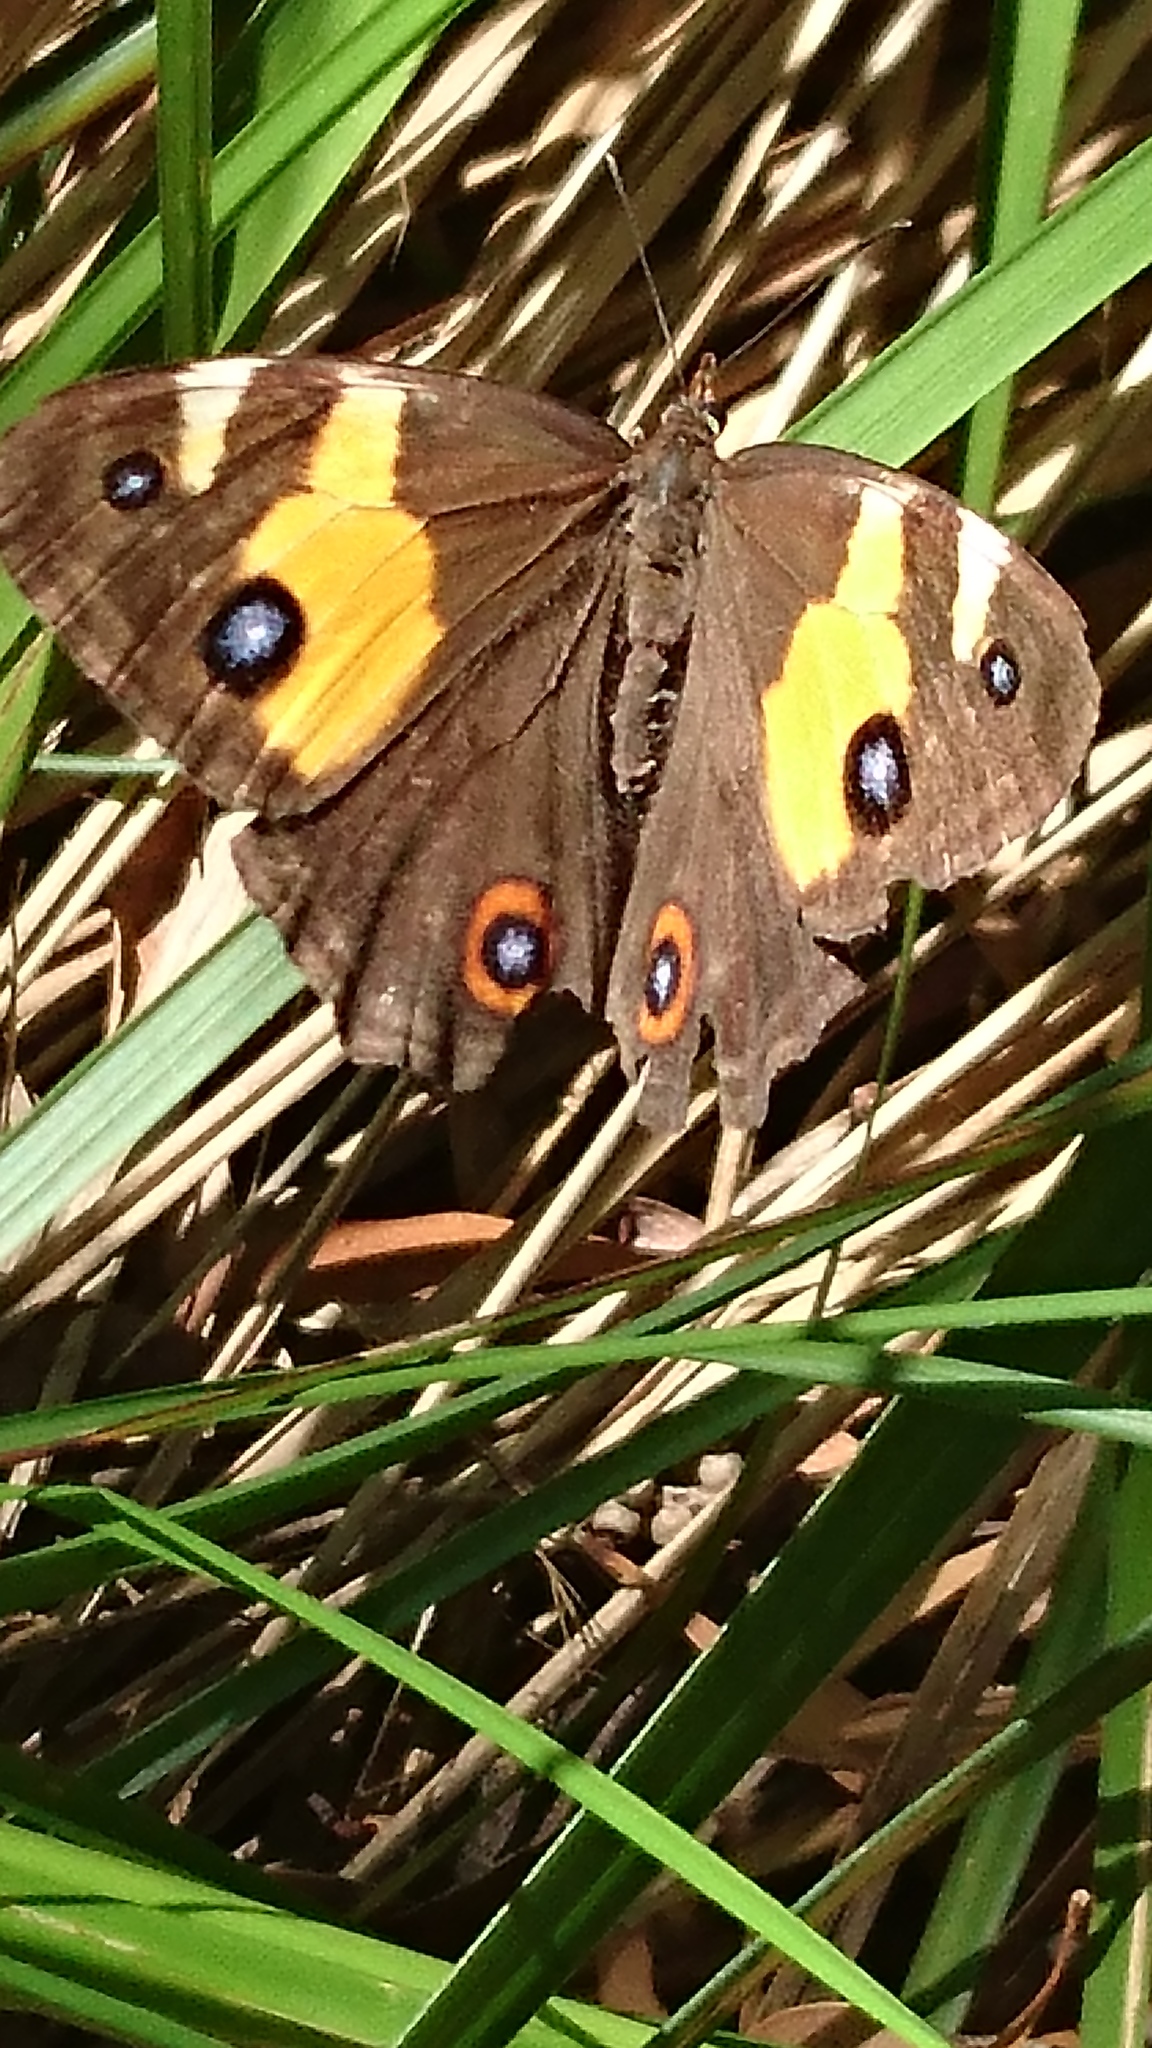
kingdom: Animalia
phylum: Arthropoda
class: Insecta
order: Lepidoptera
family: Nymphalidae
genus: Tisiphone
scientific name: Tisiphone abeona
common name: Swordgrass brown
